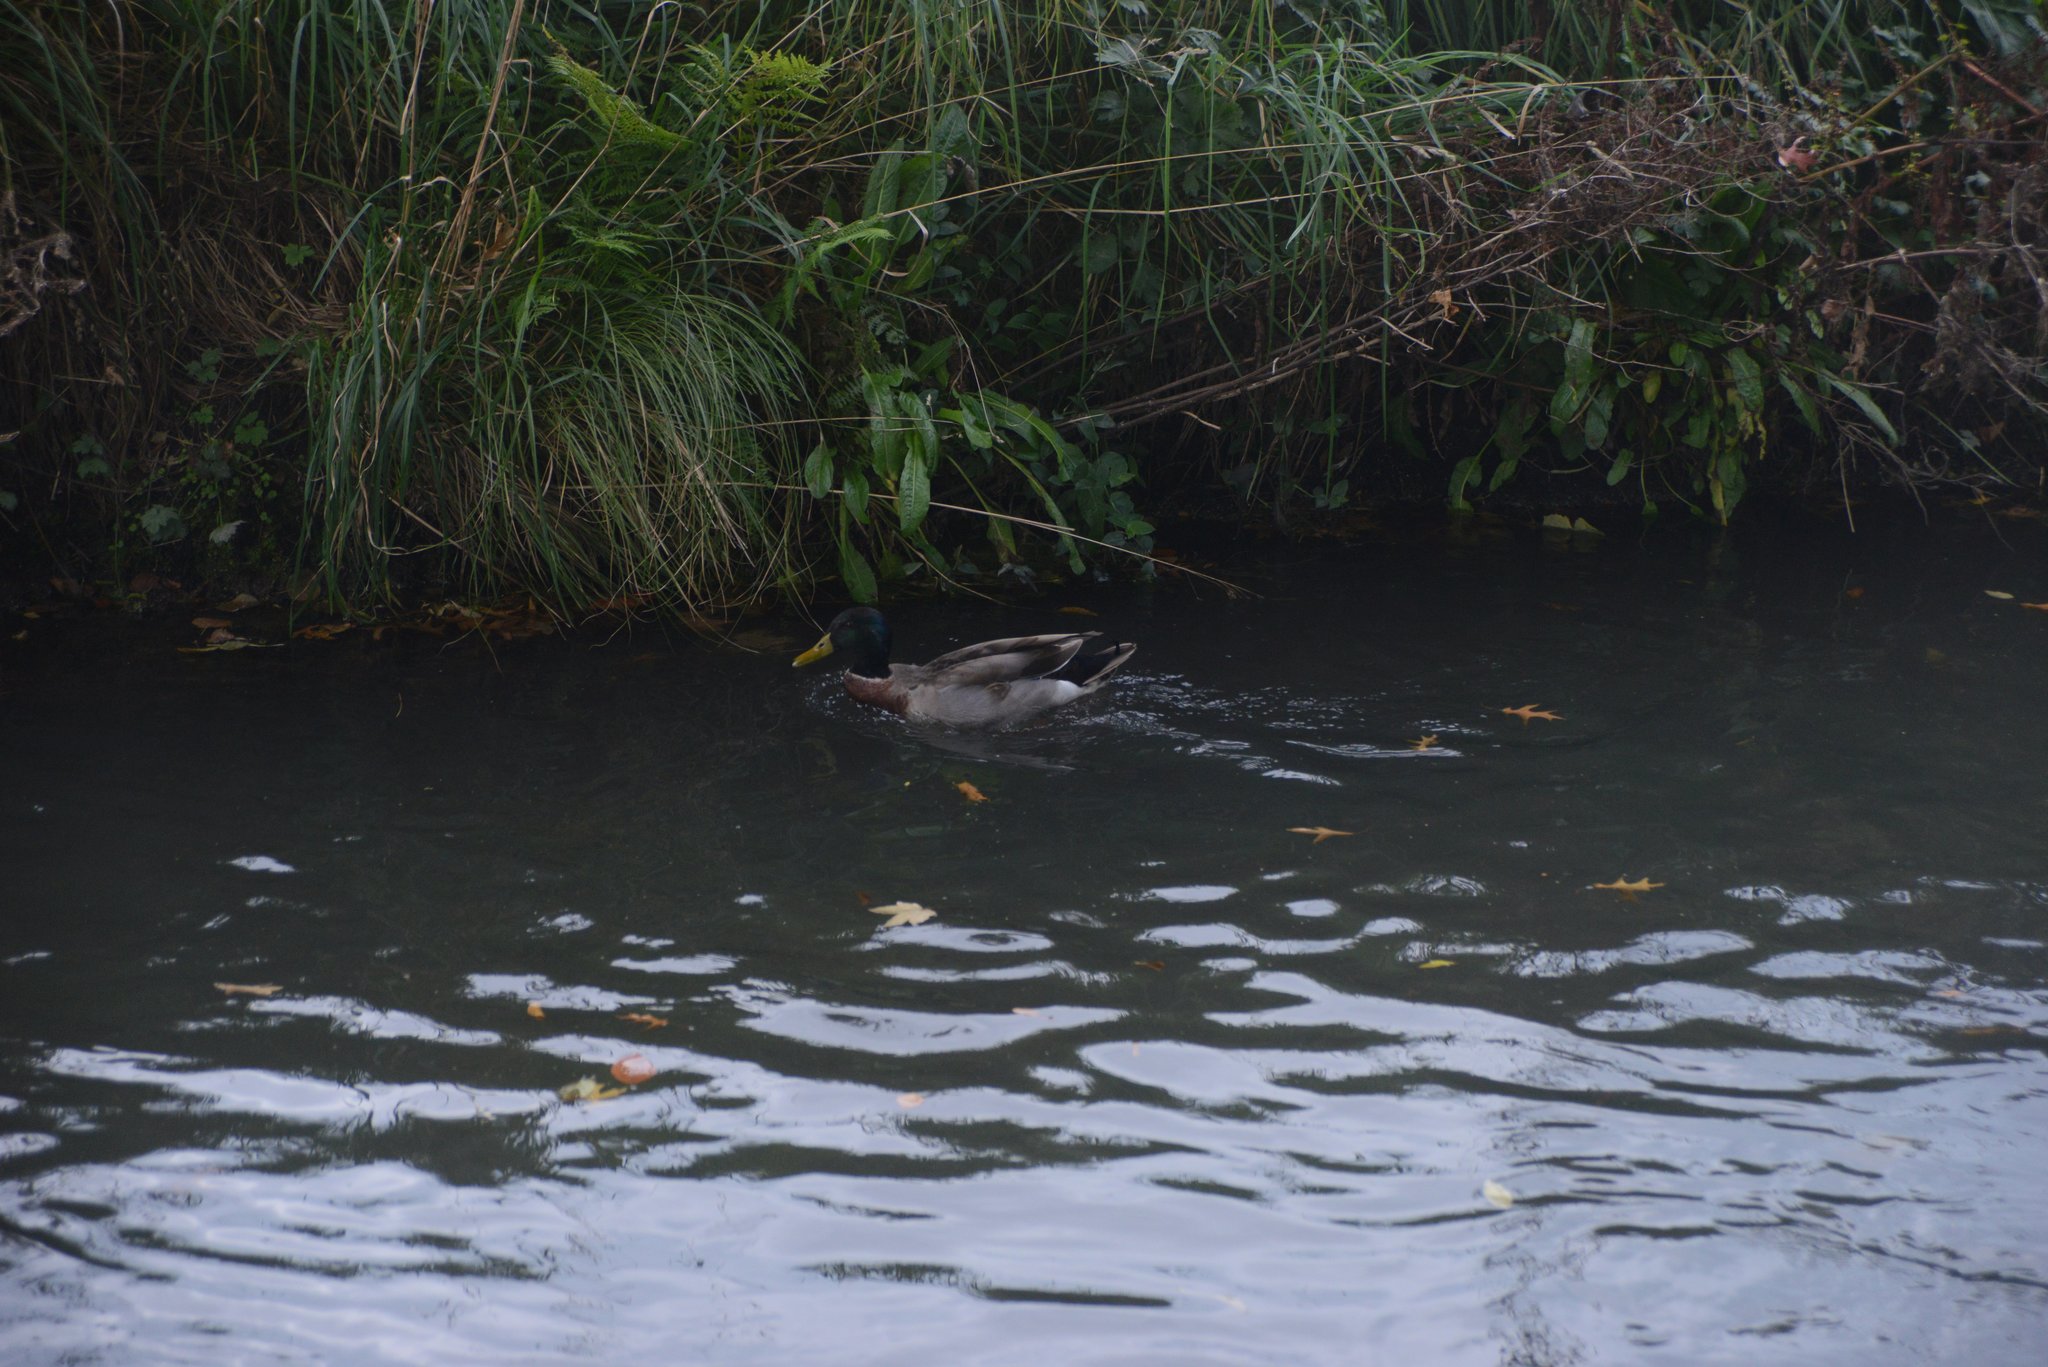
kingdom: Animalia
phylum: Chordata
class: Aves
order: Anseriformes
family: Anatidae
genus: Anas
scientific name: Anas platyrhynchos
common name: Mallard
